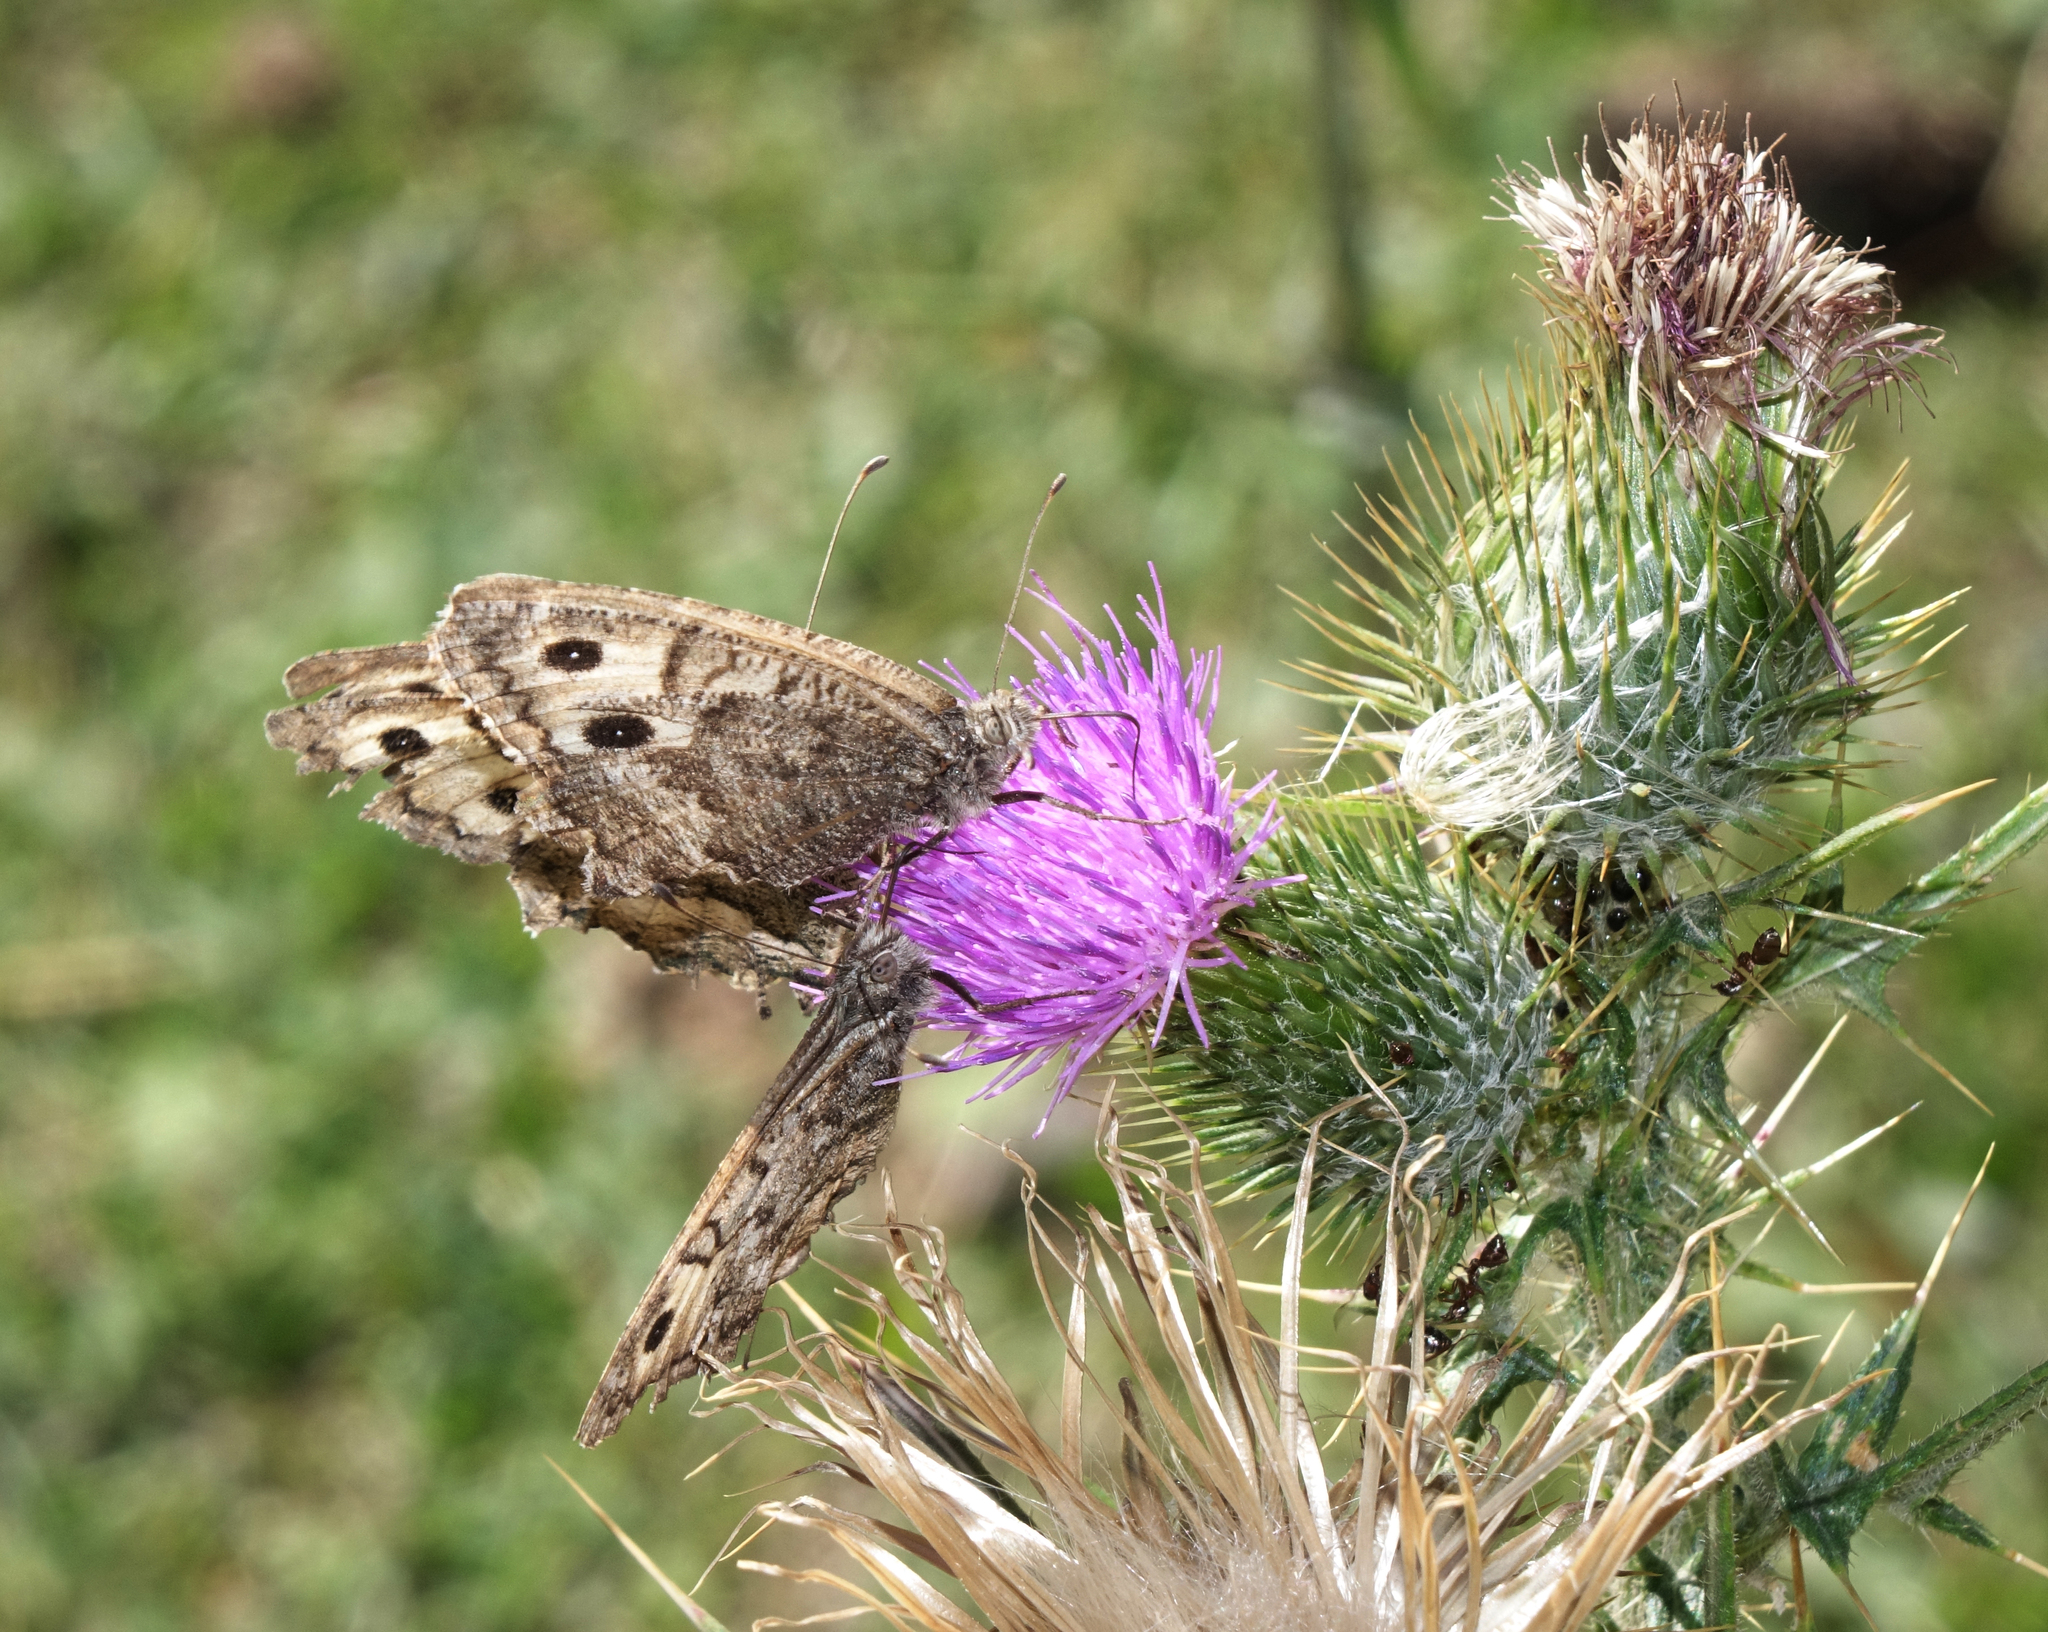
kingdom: Plantae
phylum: Tracheophyta
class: Magnoliopsida
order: Asterales
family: Asteraceae
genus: Cirsium
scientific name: Cirsium vulgare
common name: Bull thistle
